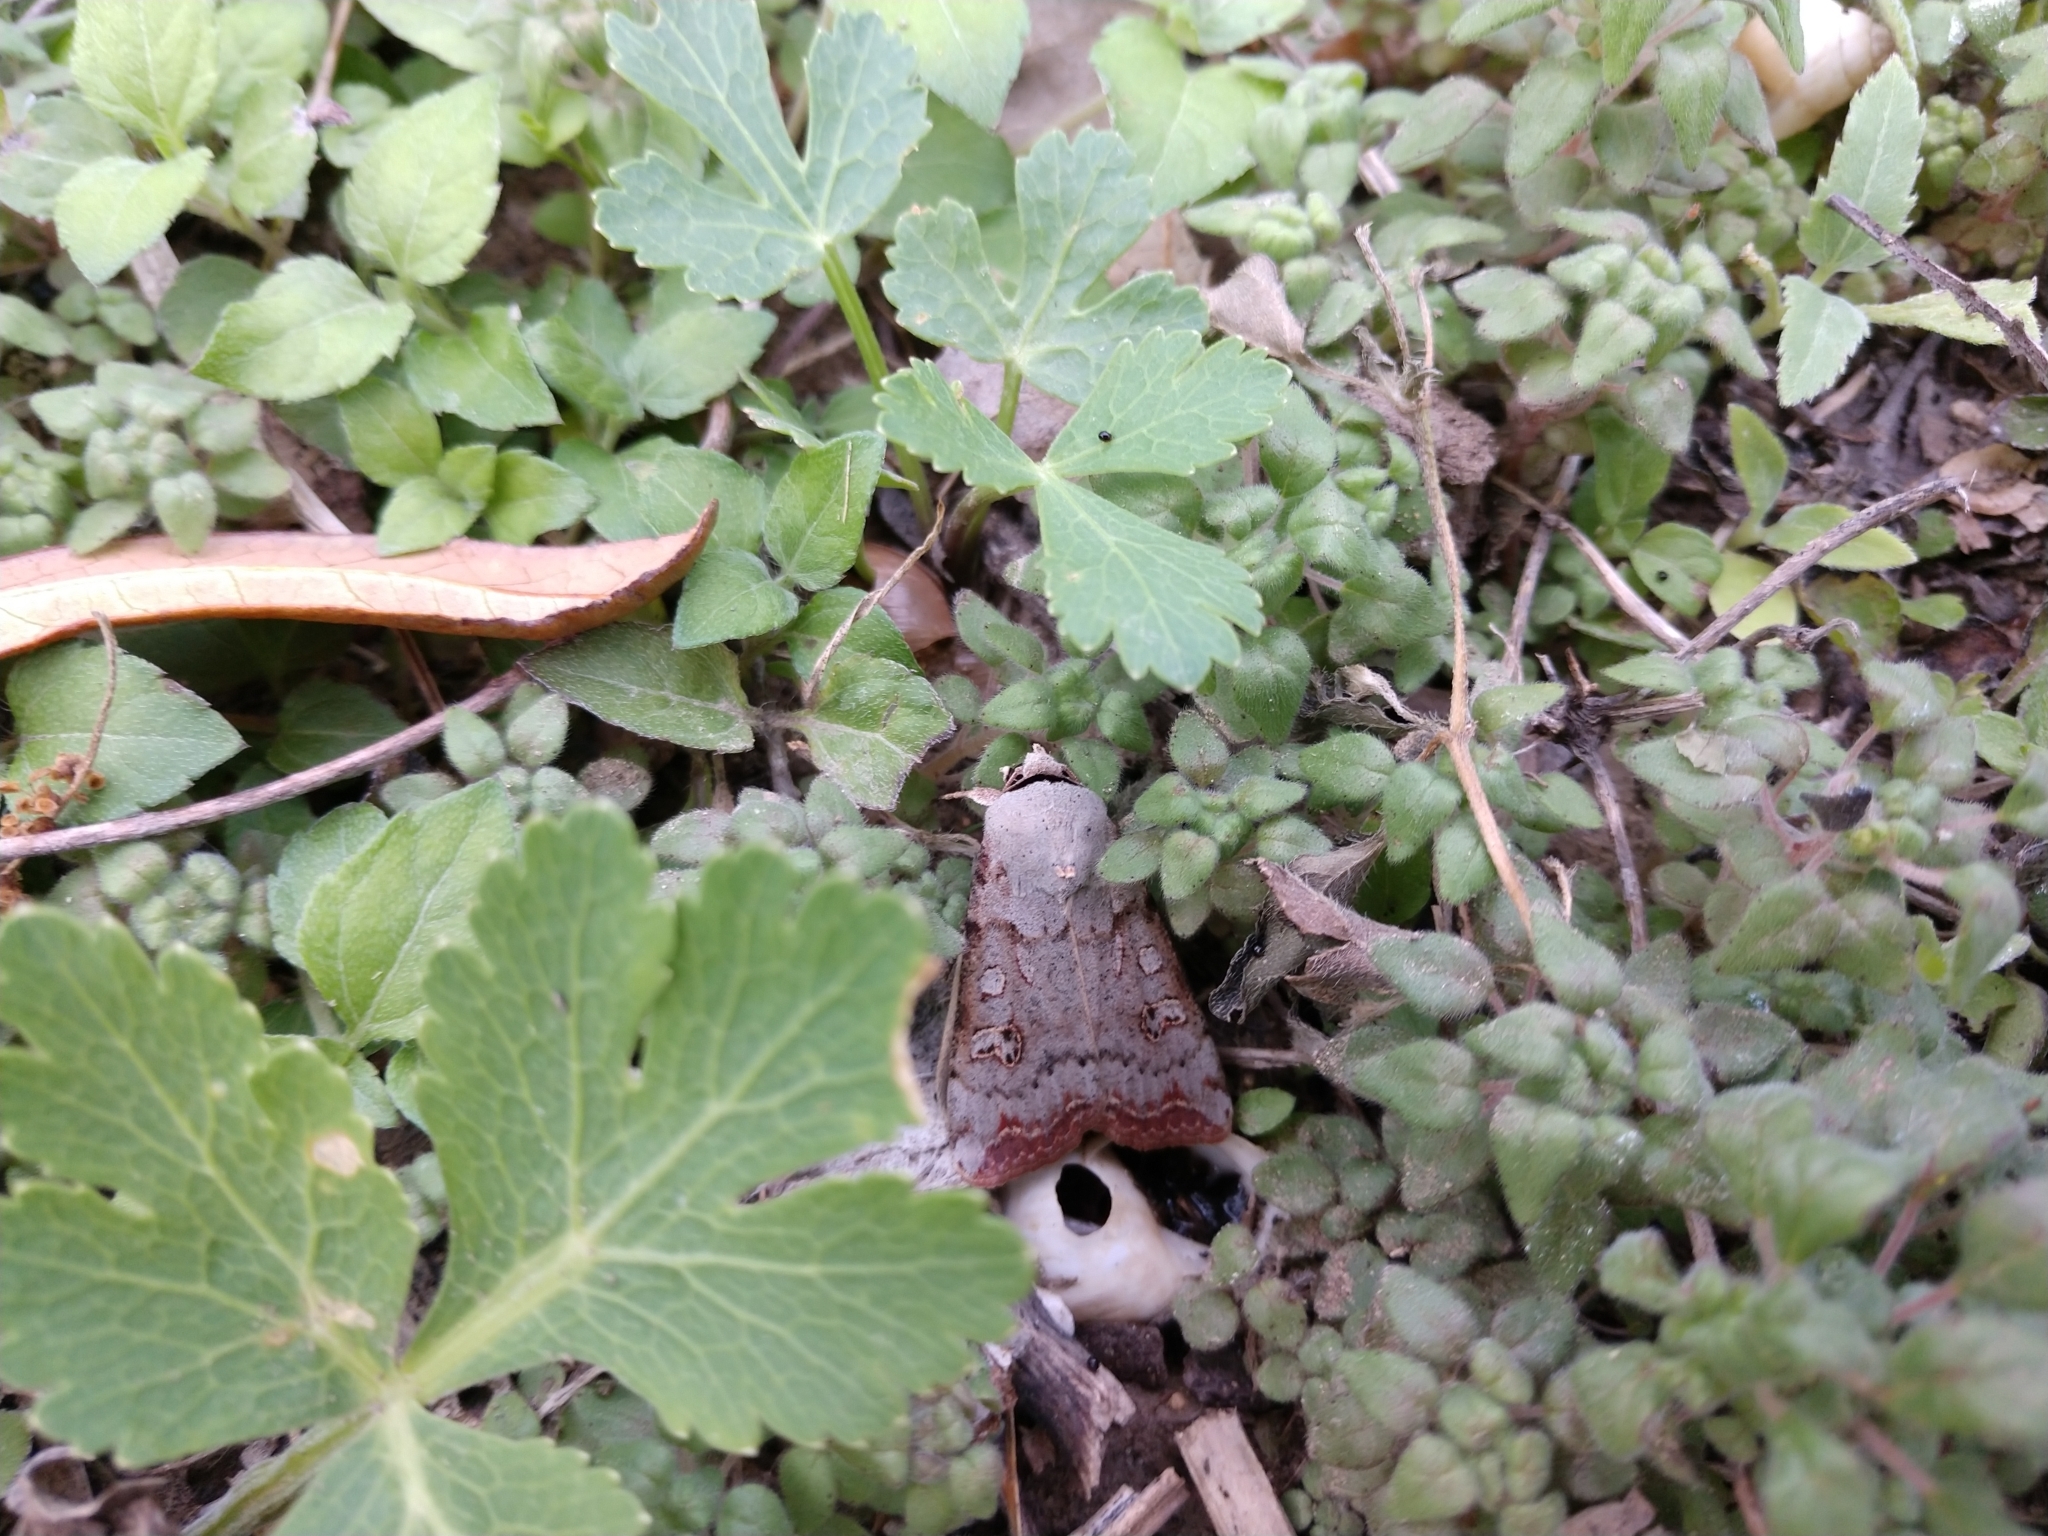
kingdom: Animalia
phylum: Arthropoda
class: Insecta
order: Lepidoptera
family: Noctuidae
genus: Anicla
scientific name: Anicla infecta
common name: Green cutworm
